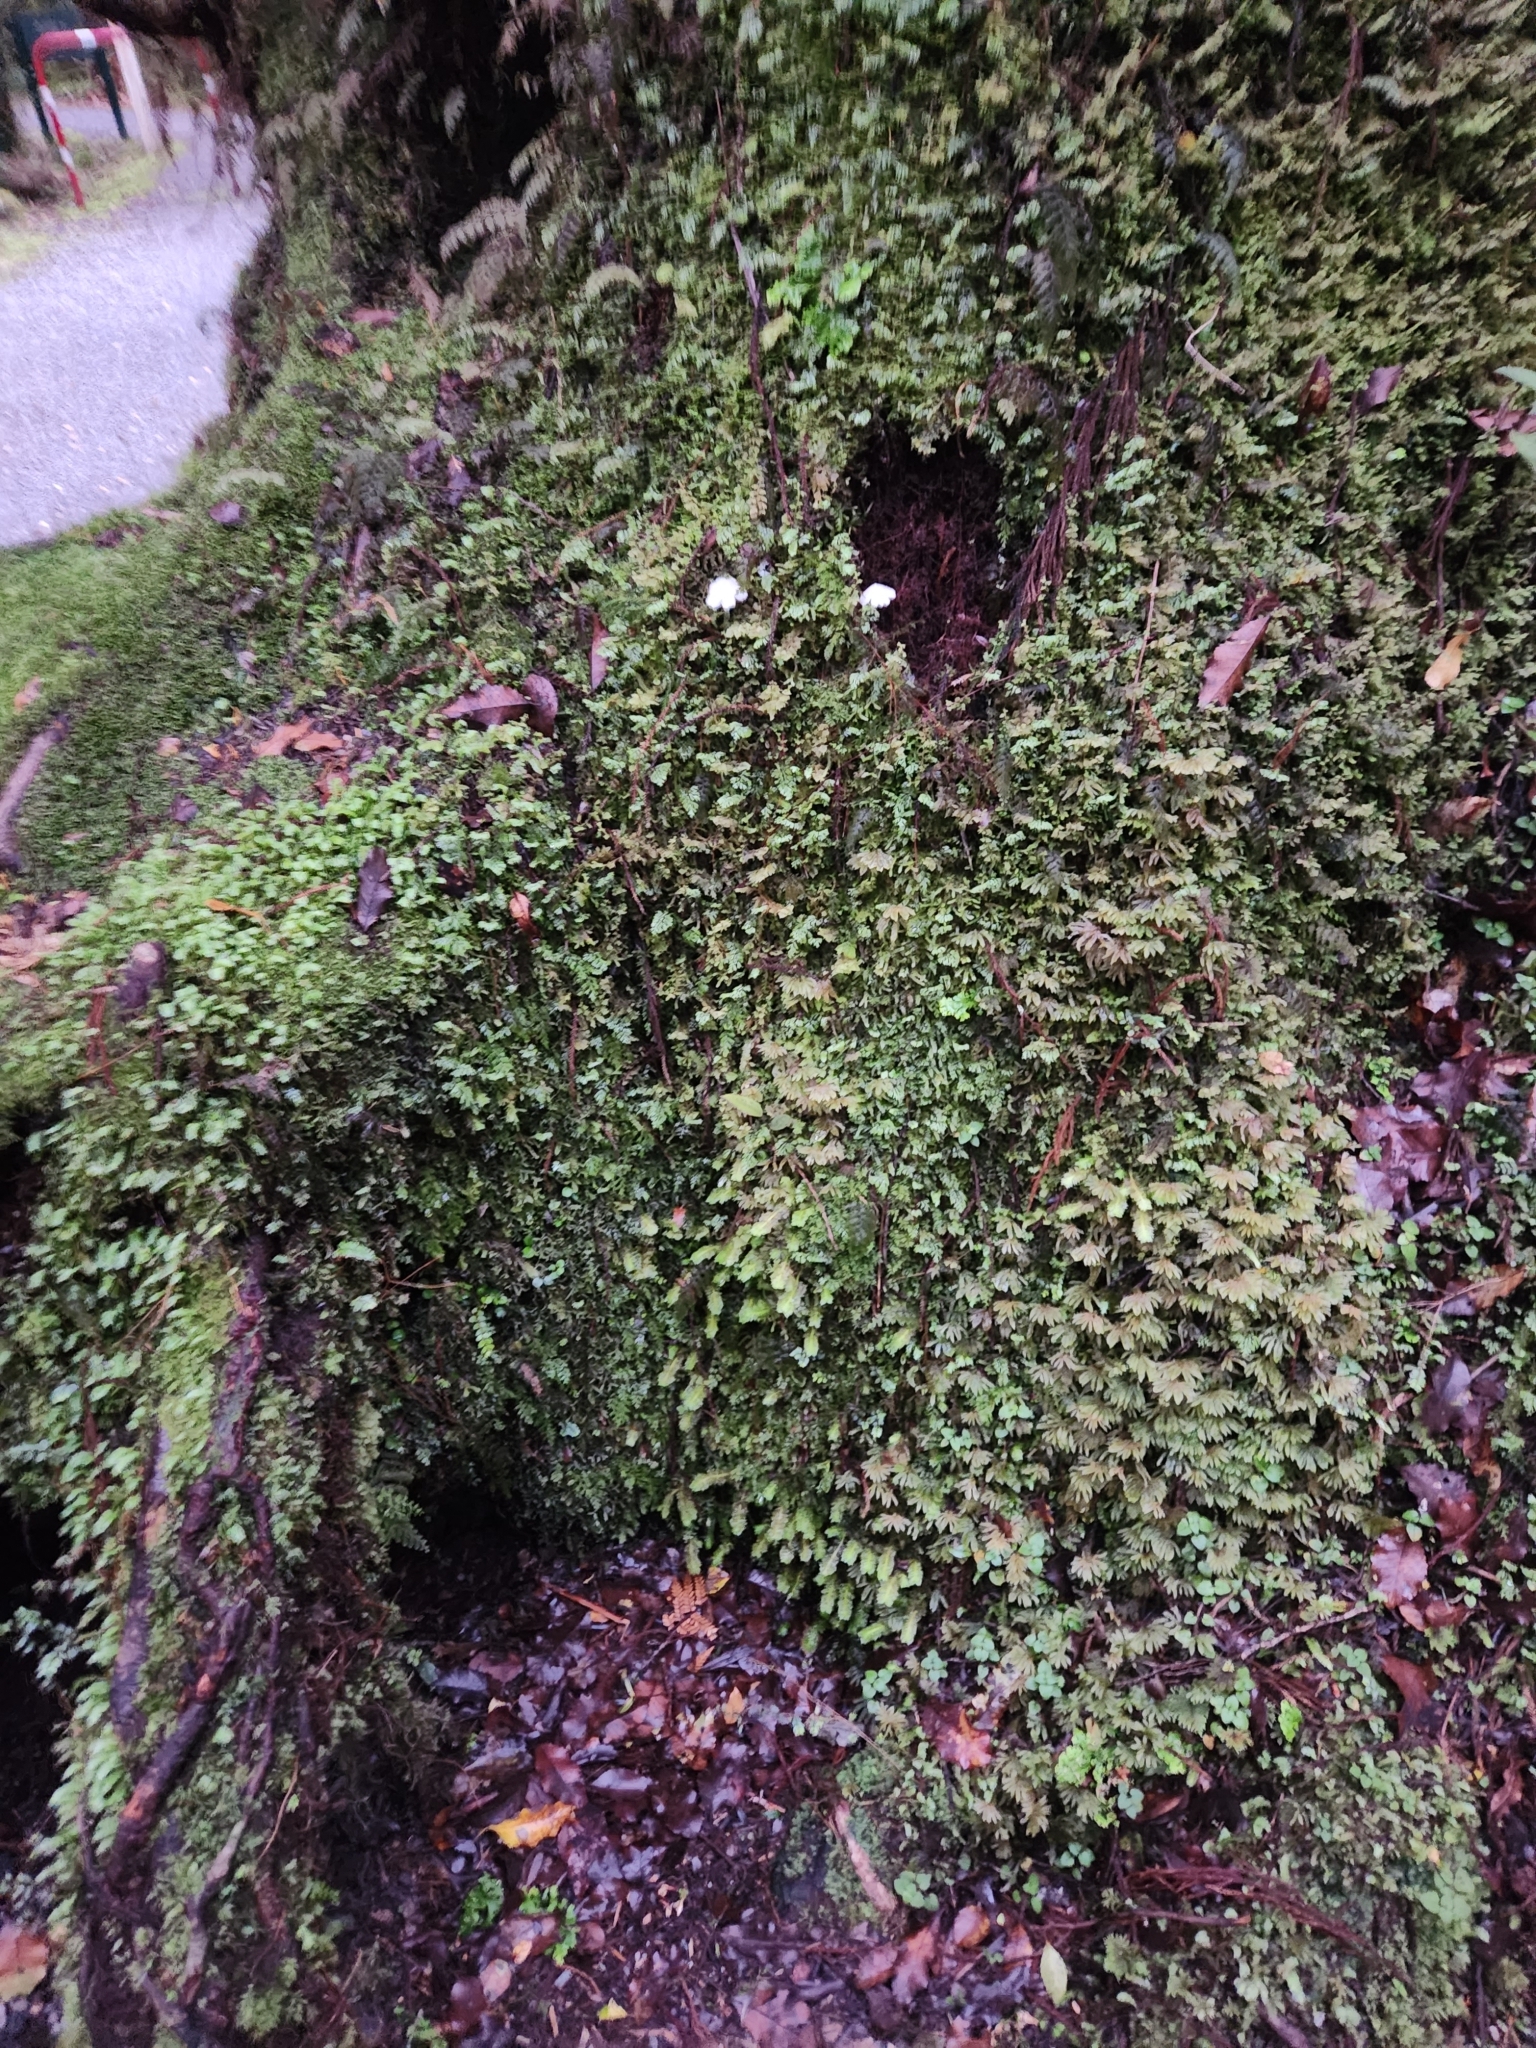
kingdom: Fungi
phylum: Basidiomycota
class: Agaricomycetes
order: Agaricales
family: Hygrophoraceae
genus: Humidicutis
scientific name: Humidicutis mavis
